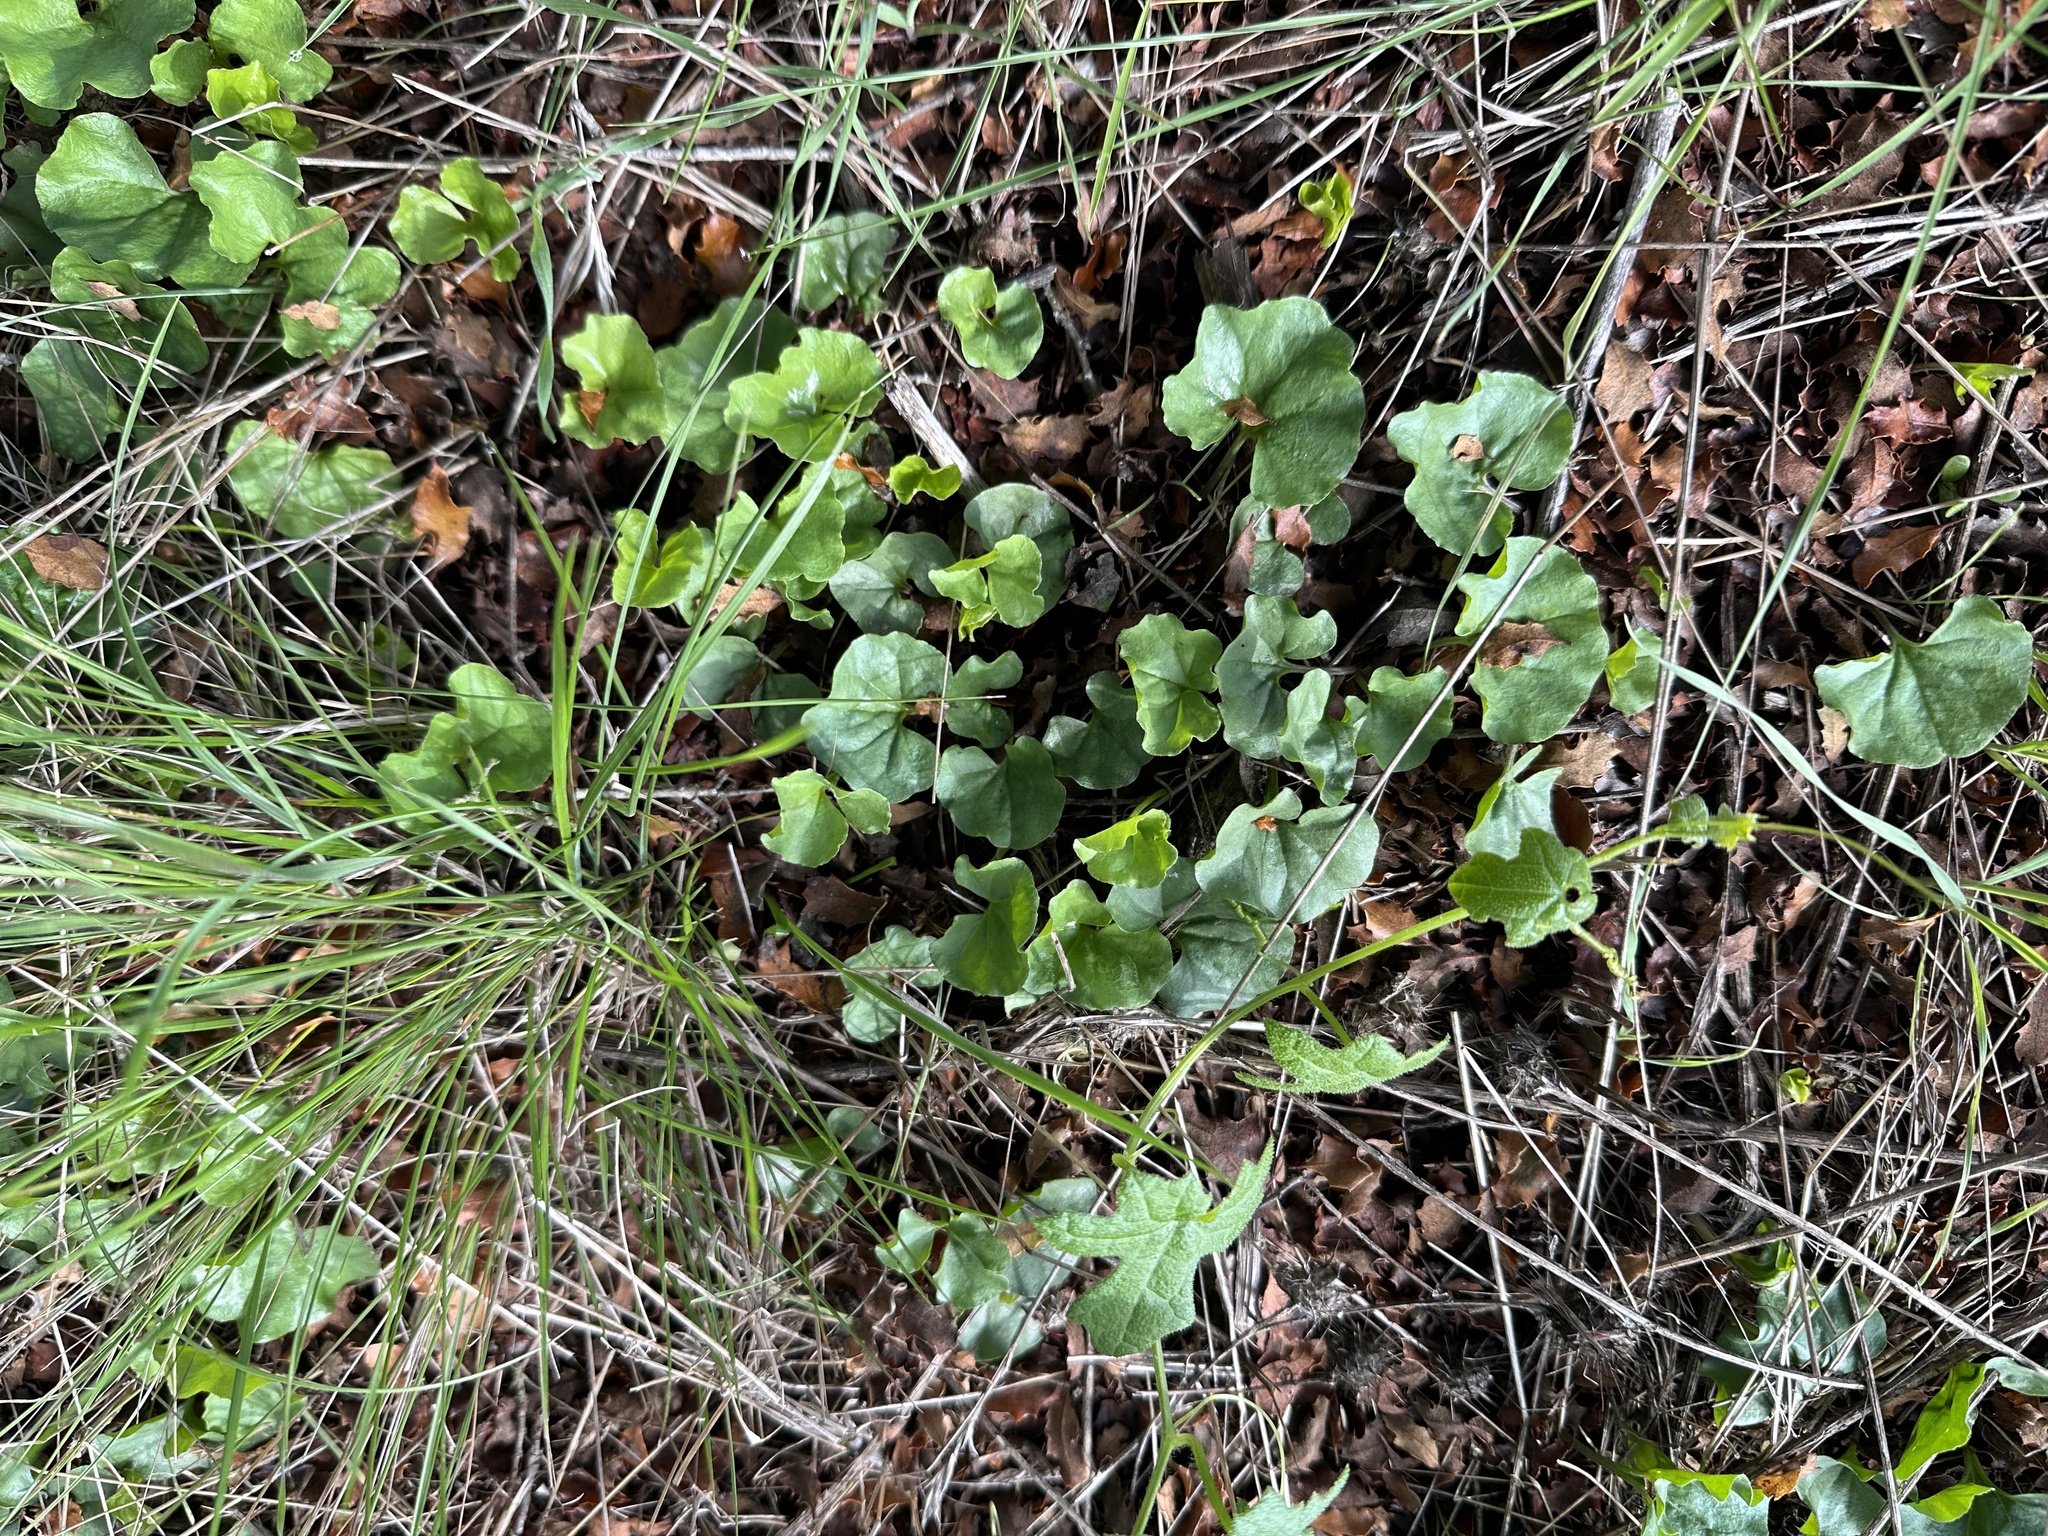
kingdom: Plantae
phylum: Tracheophyta
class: Magnoliopsida
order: Solanales
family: Convolvulaceae
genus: Dichondra
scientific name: Dichondra occidentalis
